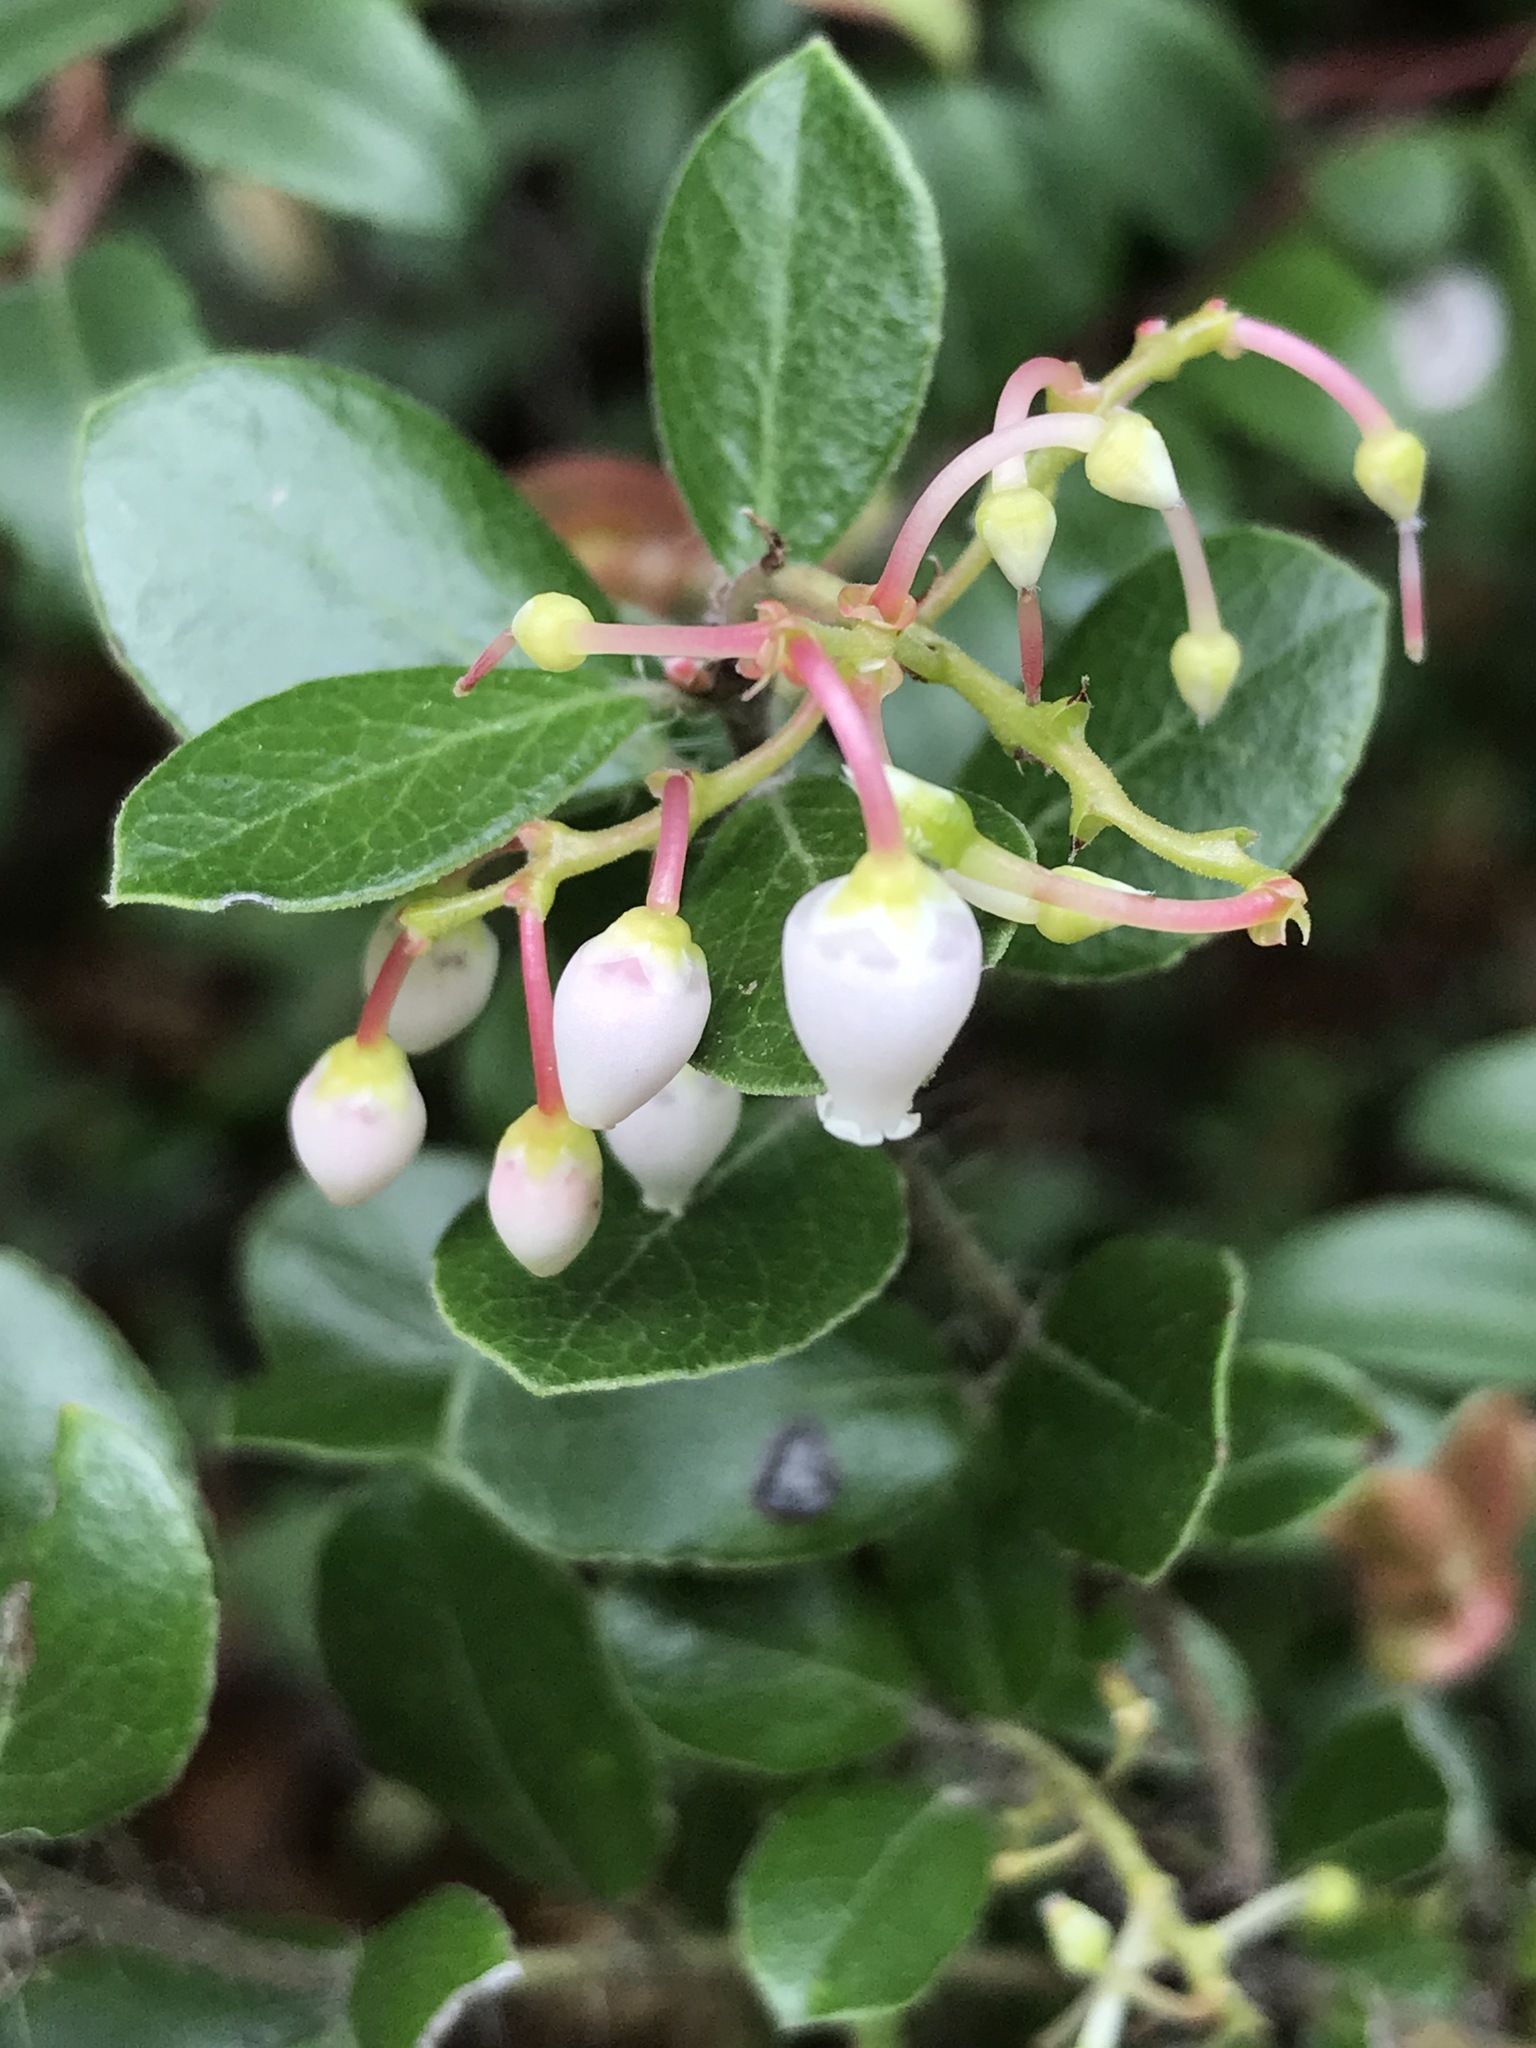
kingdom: Plantae
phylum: Tracheophyta
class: Magnoliopsida
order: Ericales
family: Ericaceae
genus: Arctostaphylos
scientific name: Arctostaphylos nummularia
